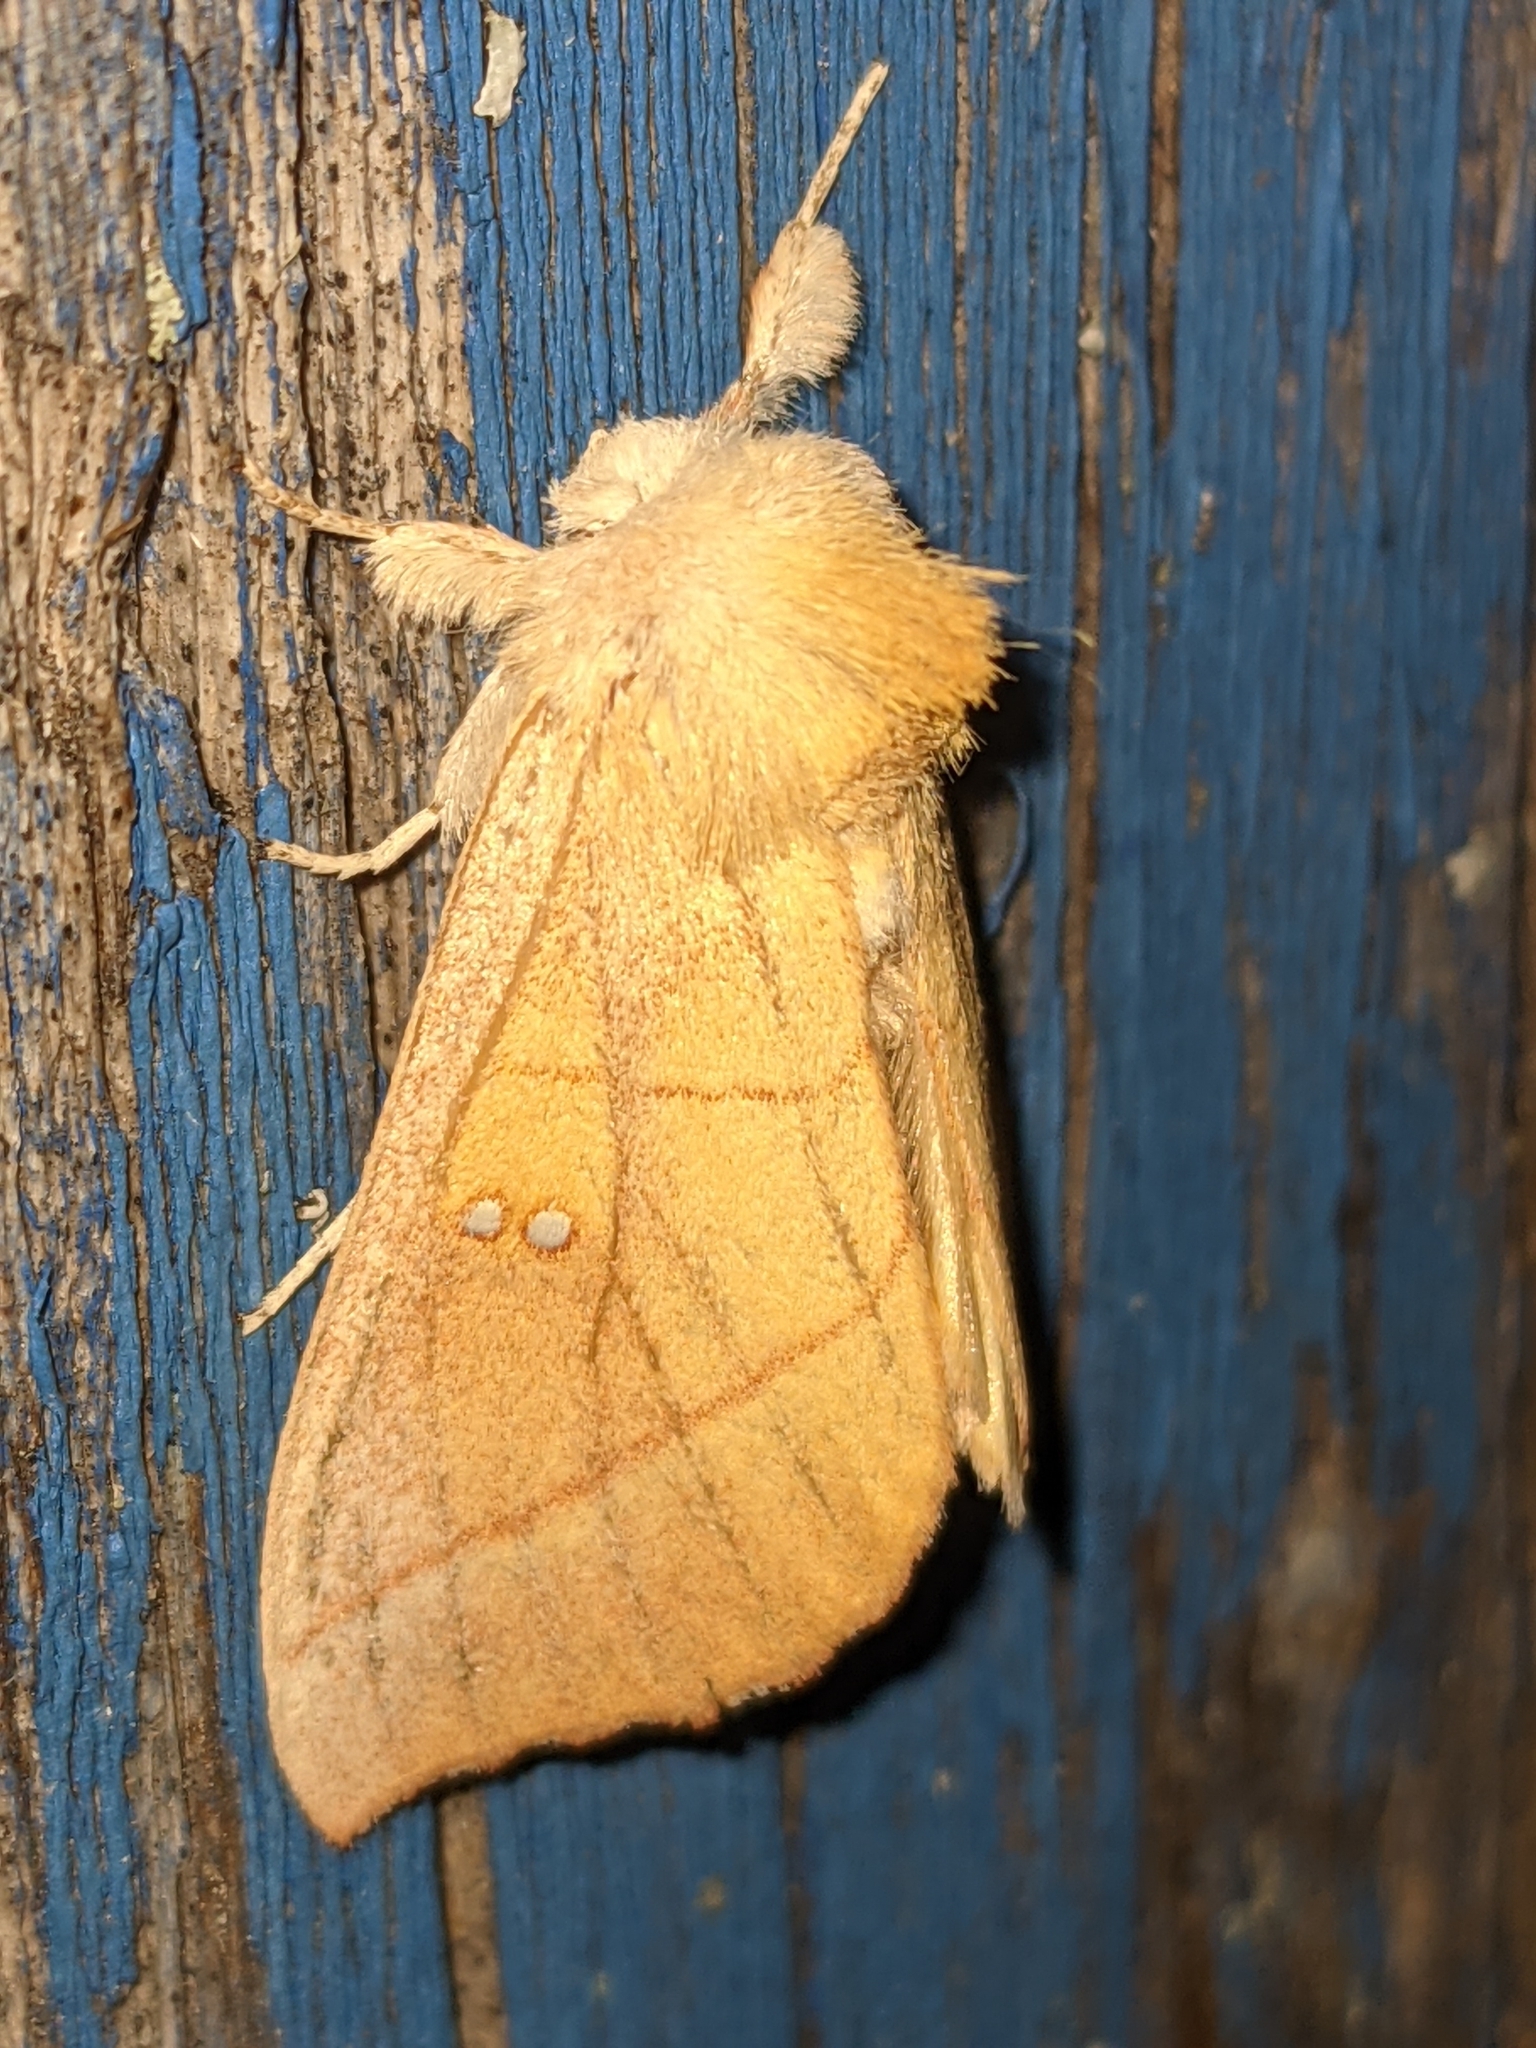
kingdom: Animalia
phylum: Arthropoda
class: Insecta
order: Lepidoptera
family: Notodontidae
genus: Nadata
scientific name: Nadata gibbosa
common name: White-dotted prominent
